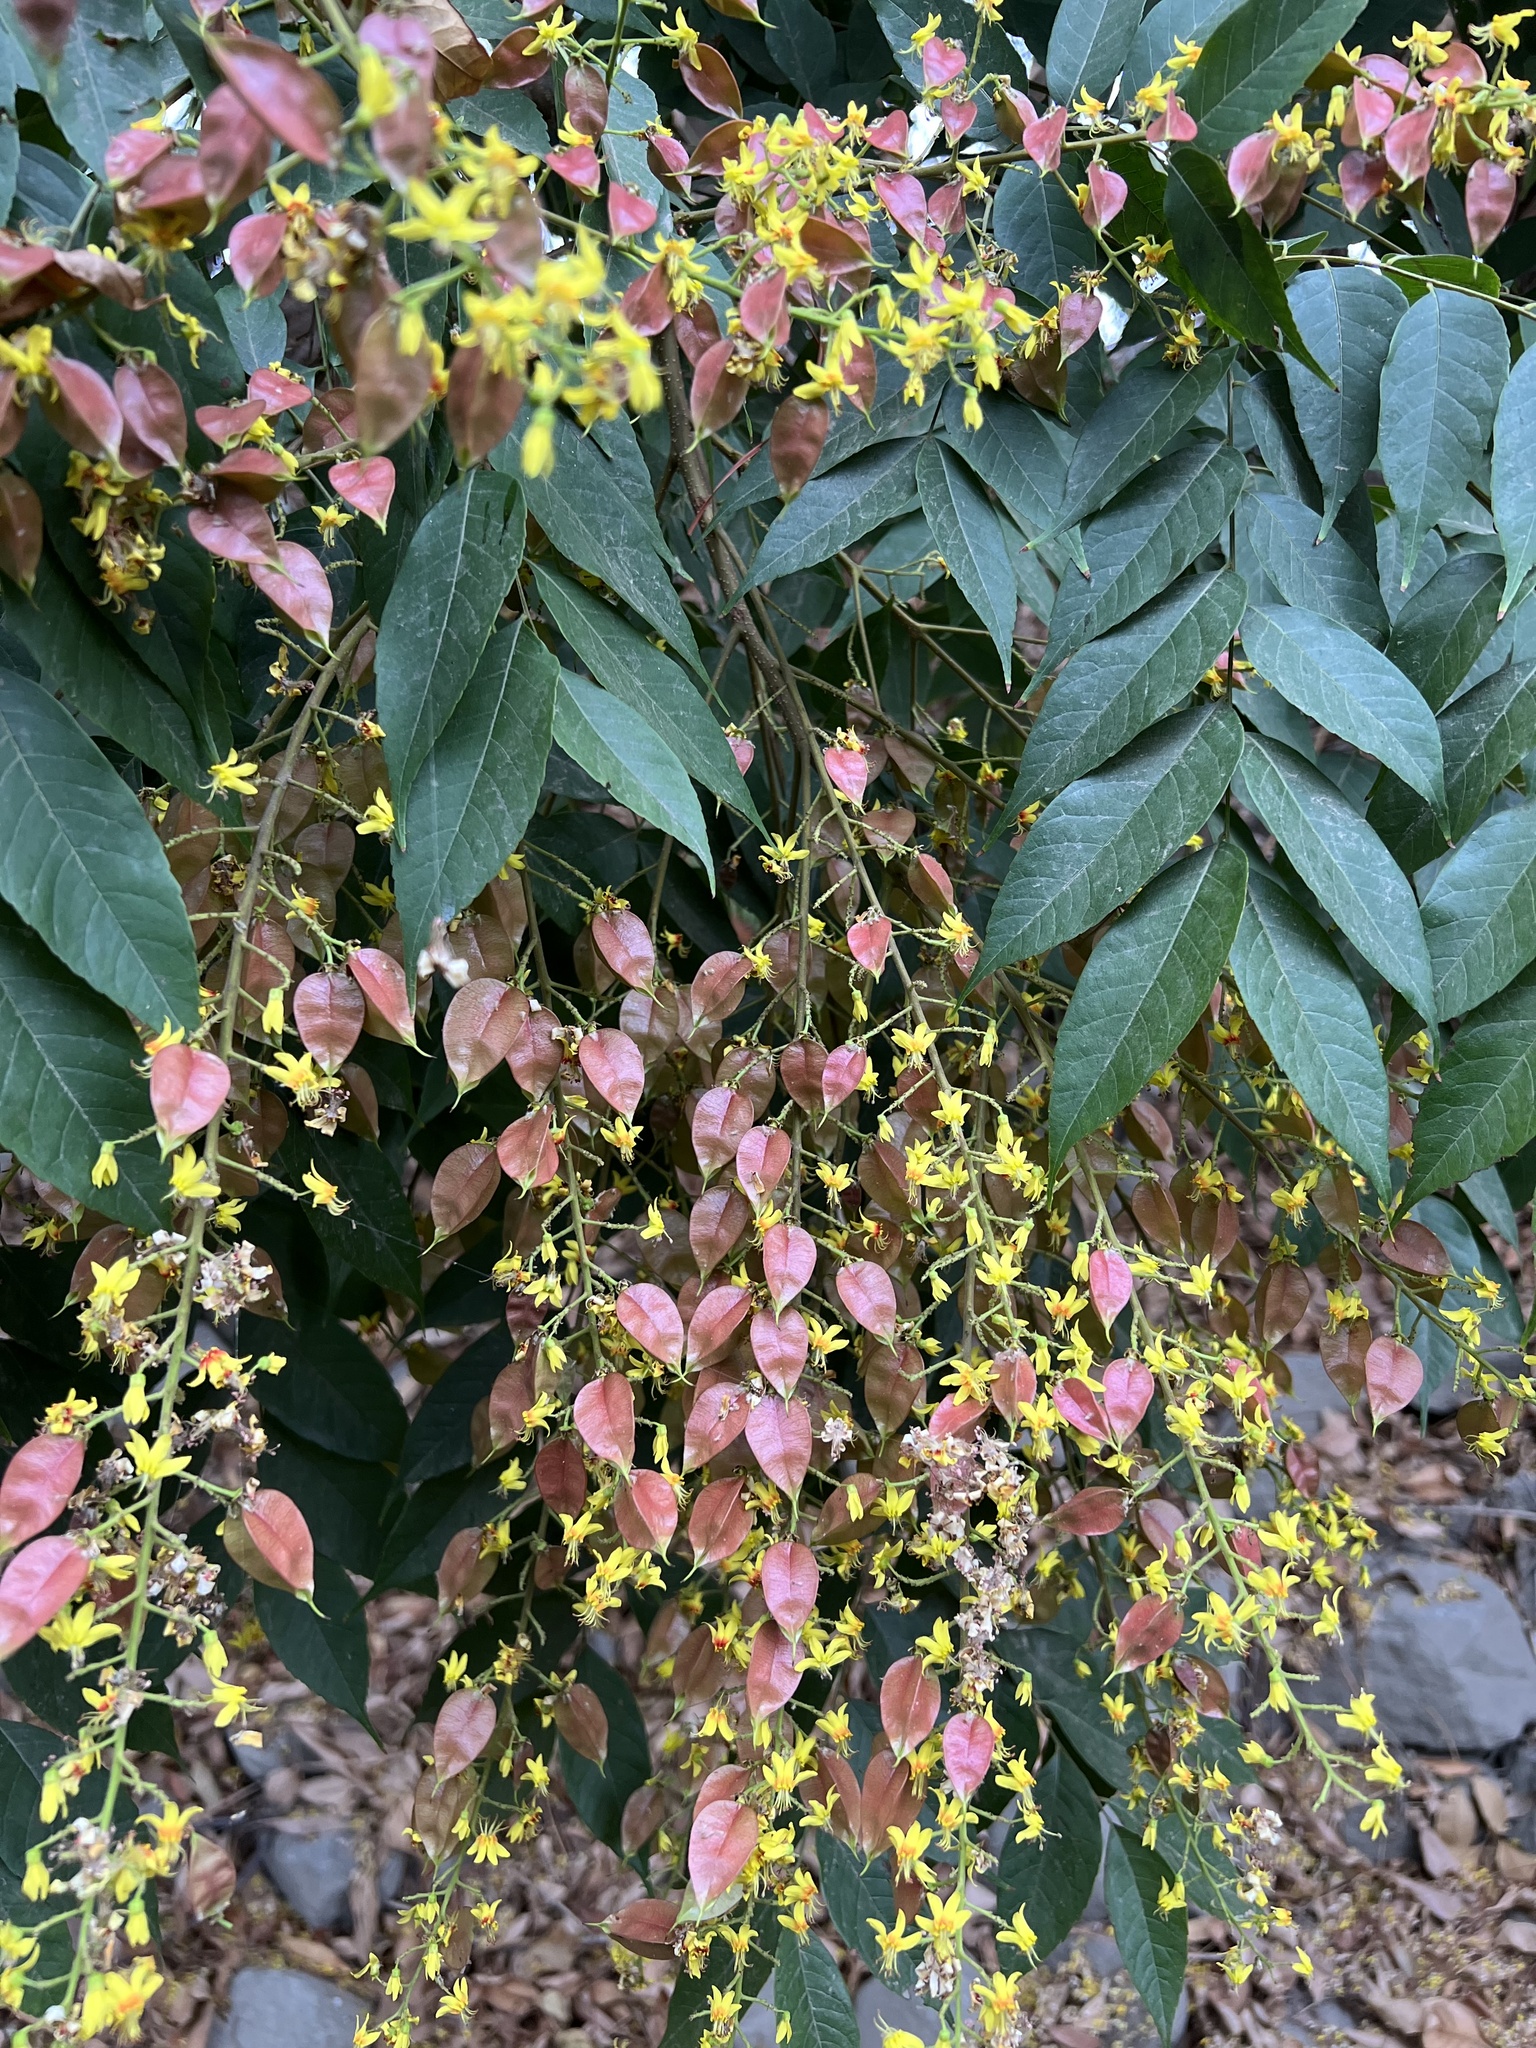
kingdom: Plantae
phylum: Tracheophyta
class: Magnoliopsida
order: Sapindales
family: Sapindaceae
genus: Koelreuteria
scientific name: Koelreuteria paniculata
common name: Pride-of-india
